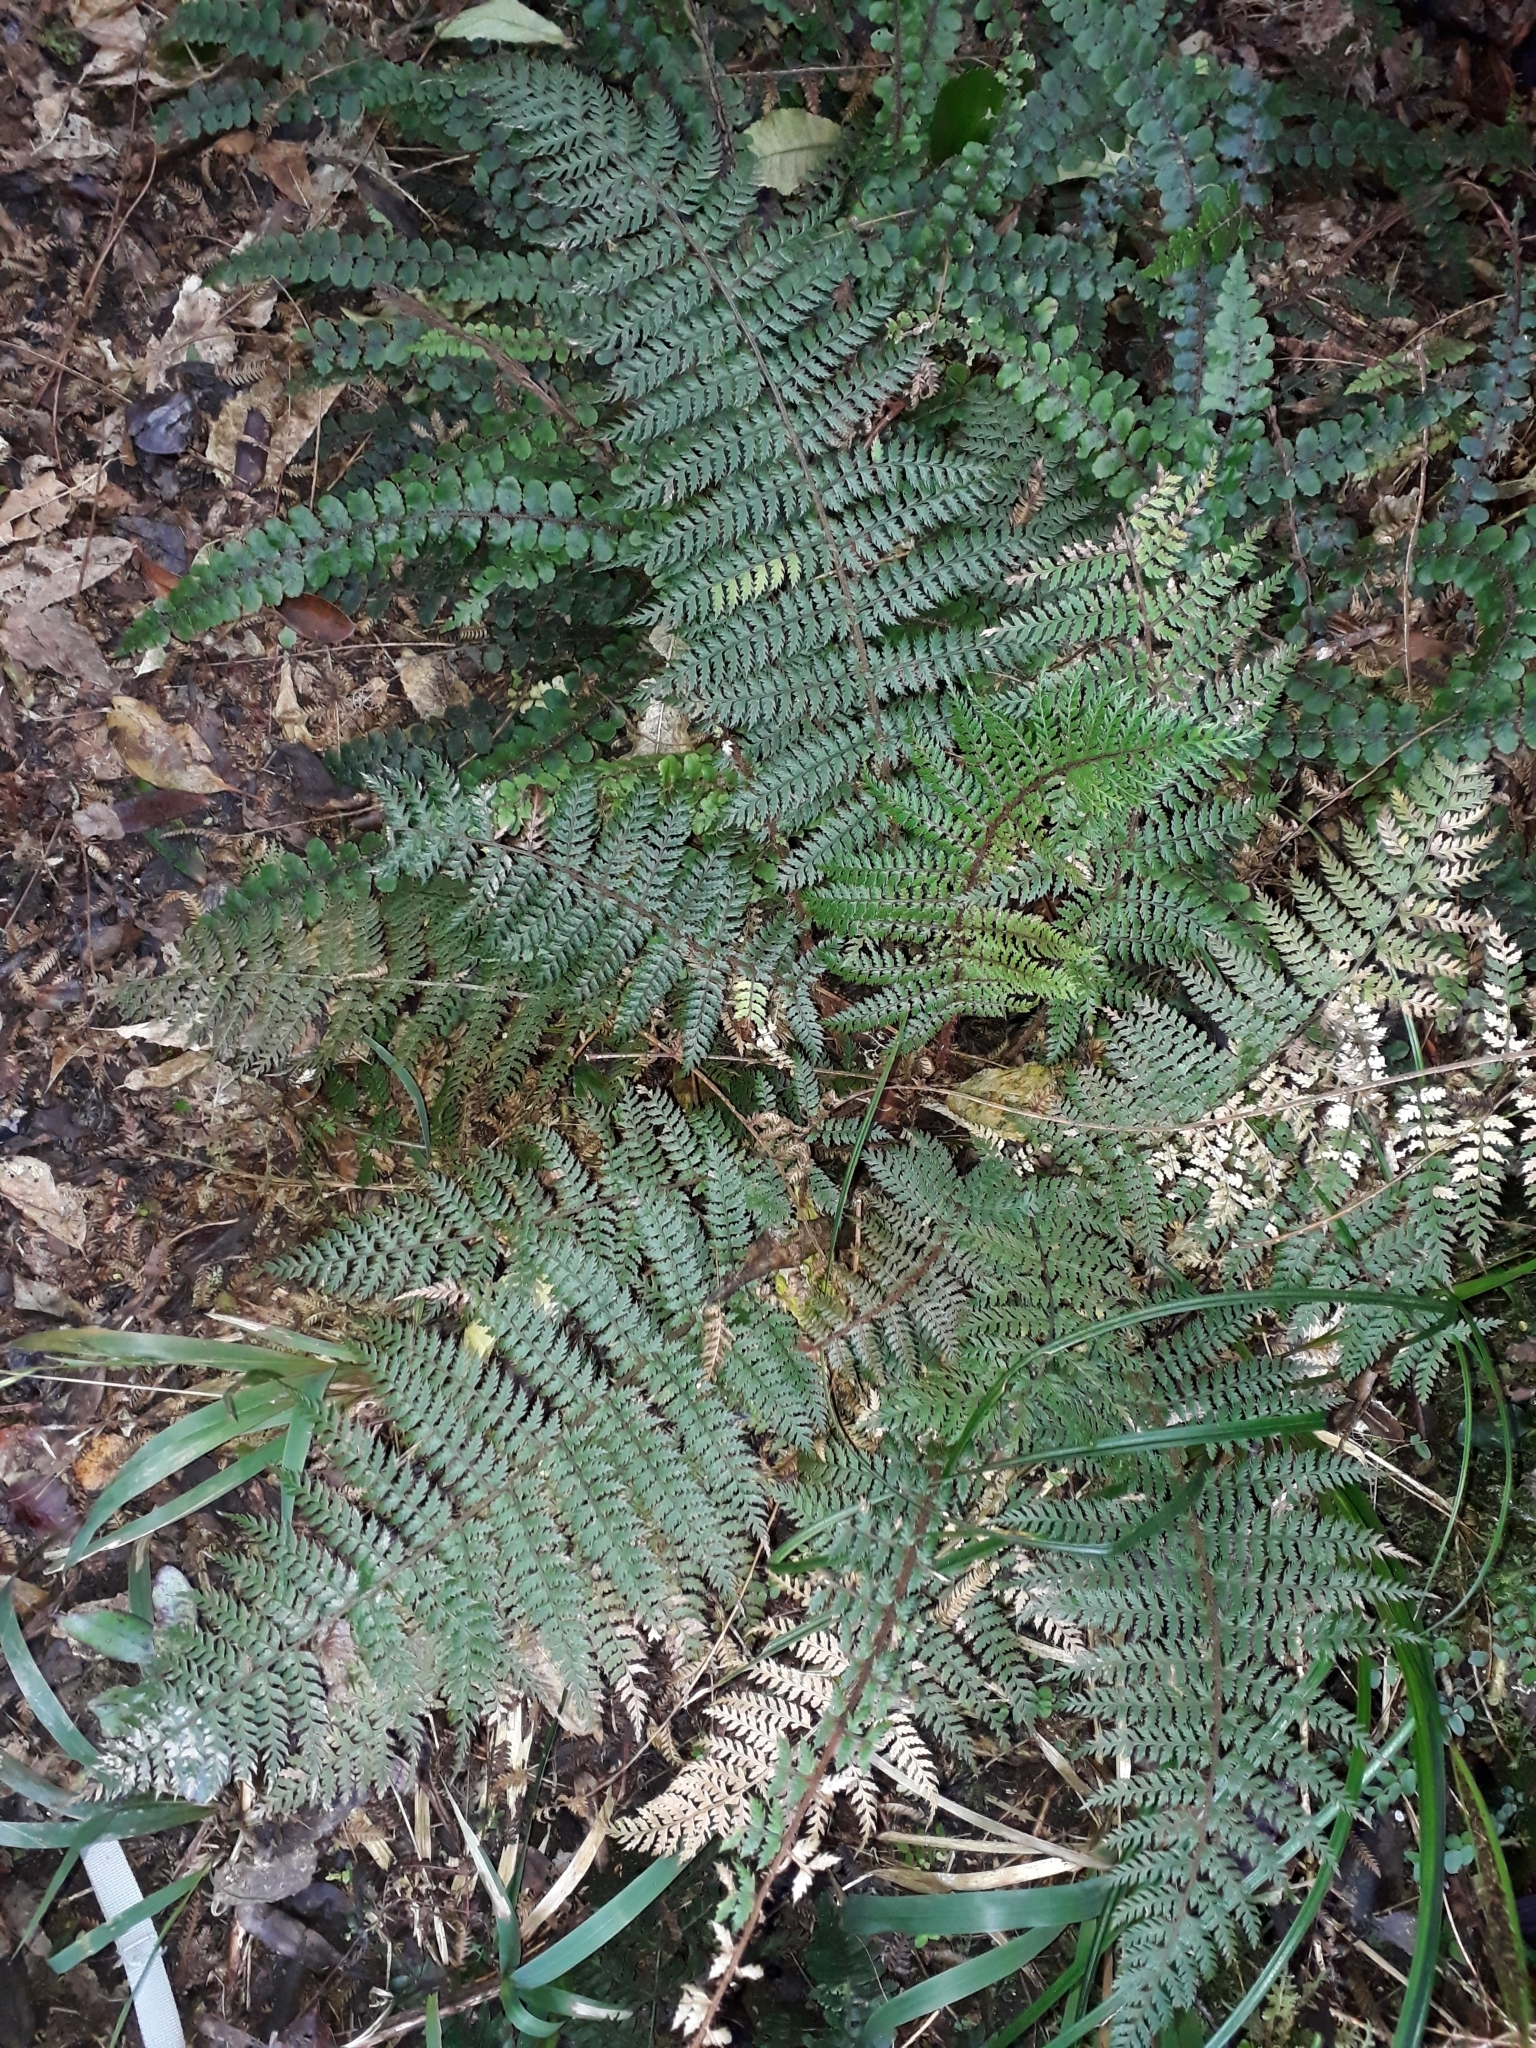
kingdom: Plantae
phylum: Tracheophyta
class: Polypodiopsida
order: Polypodiales
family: Dryopteridaceae
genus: Polystichum
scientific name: Polystichum silvaticum
